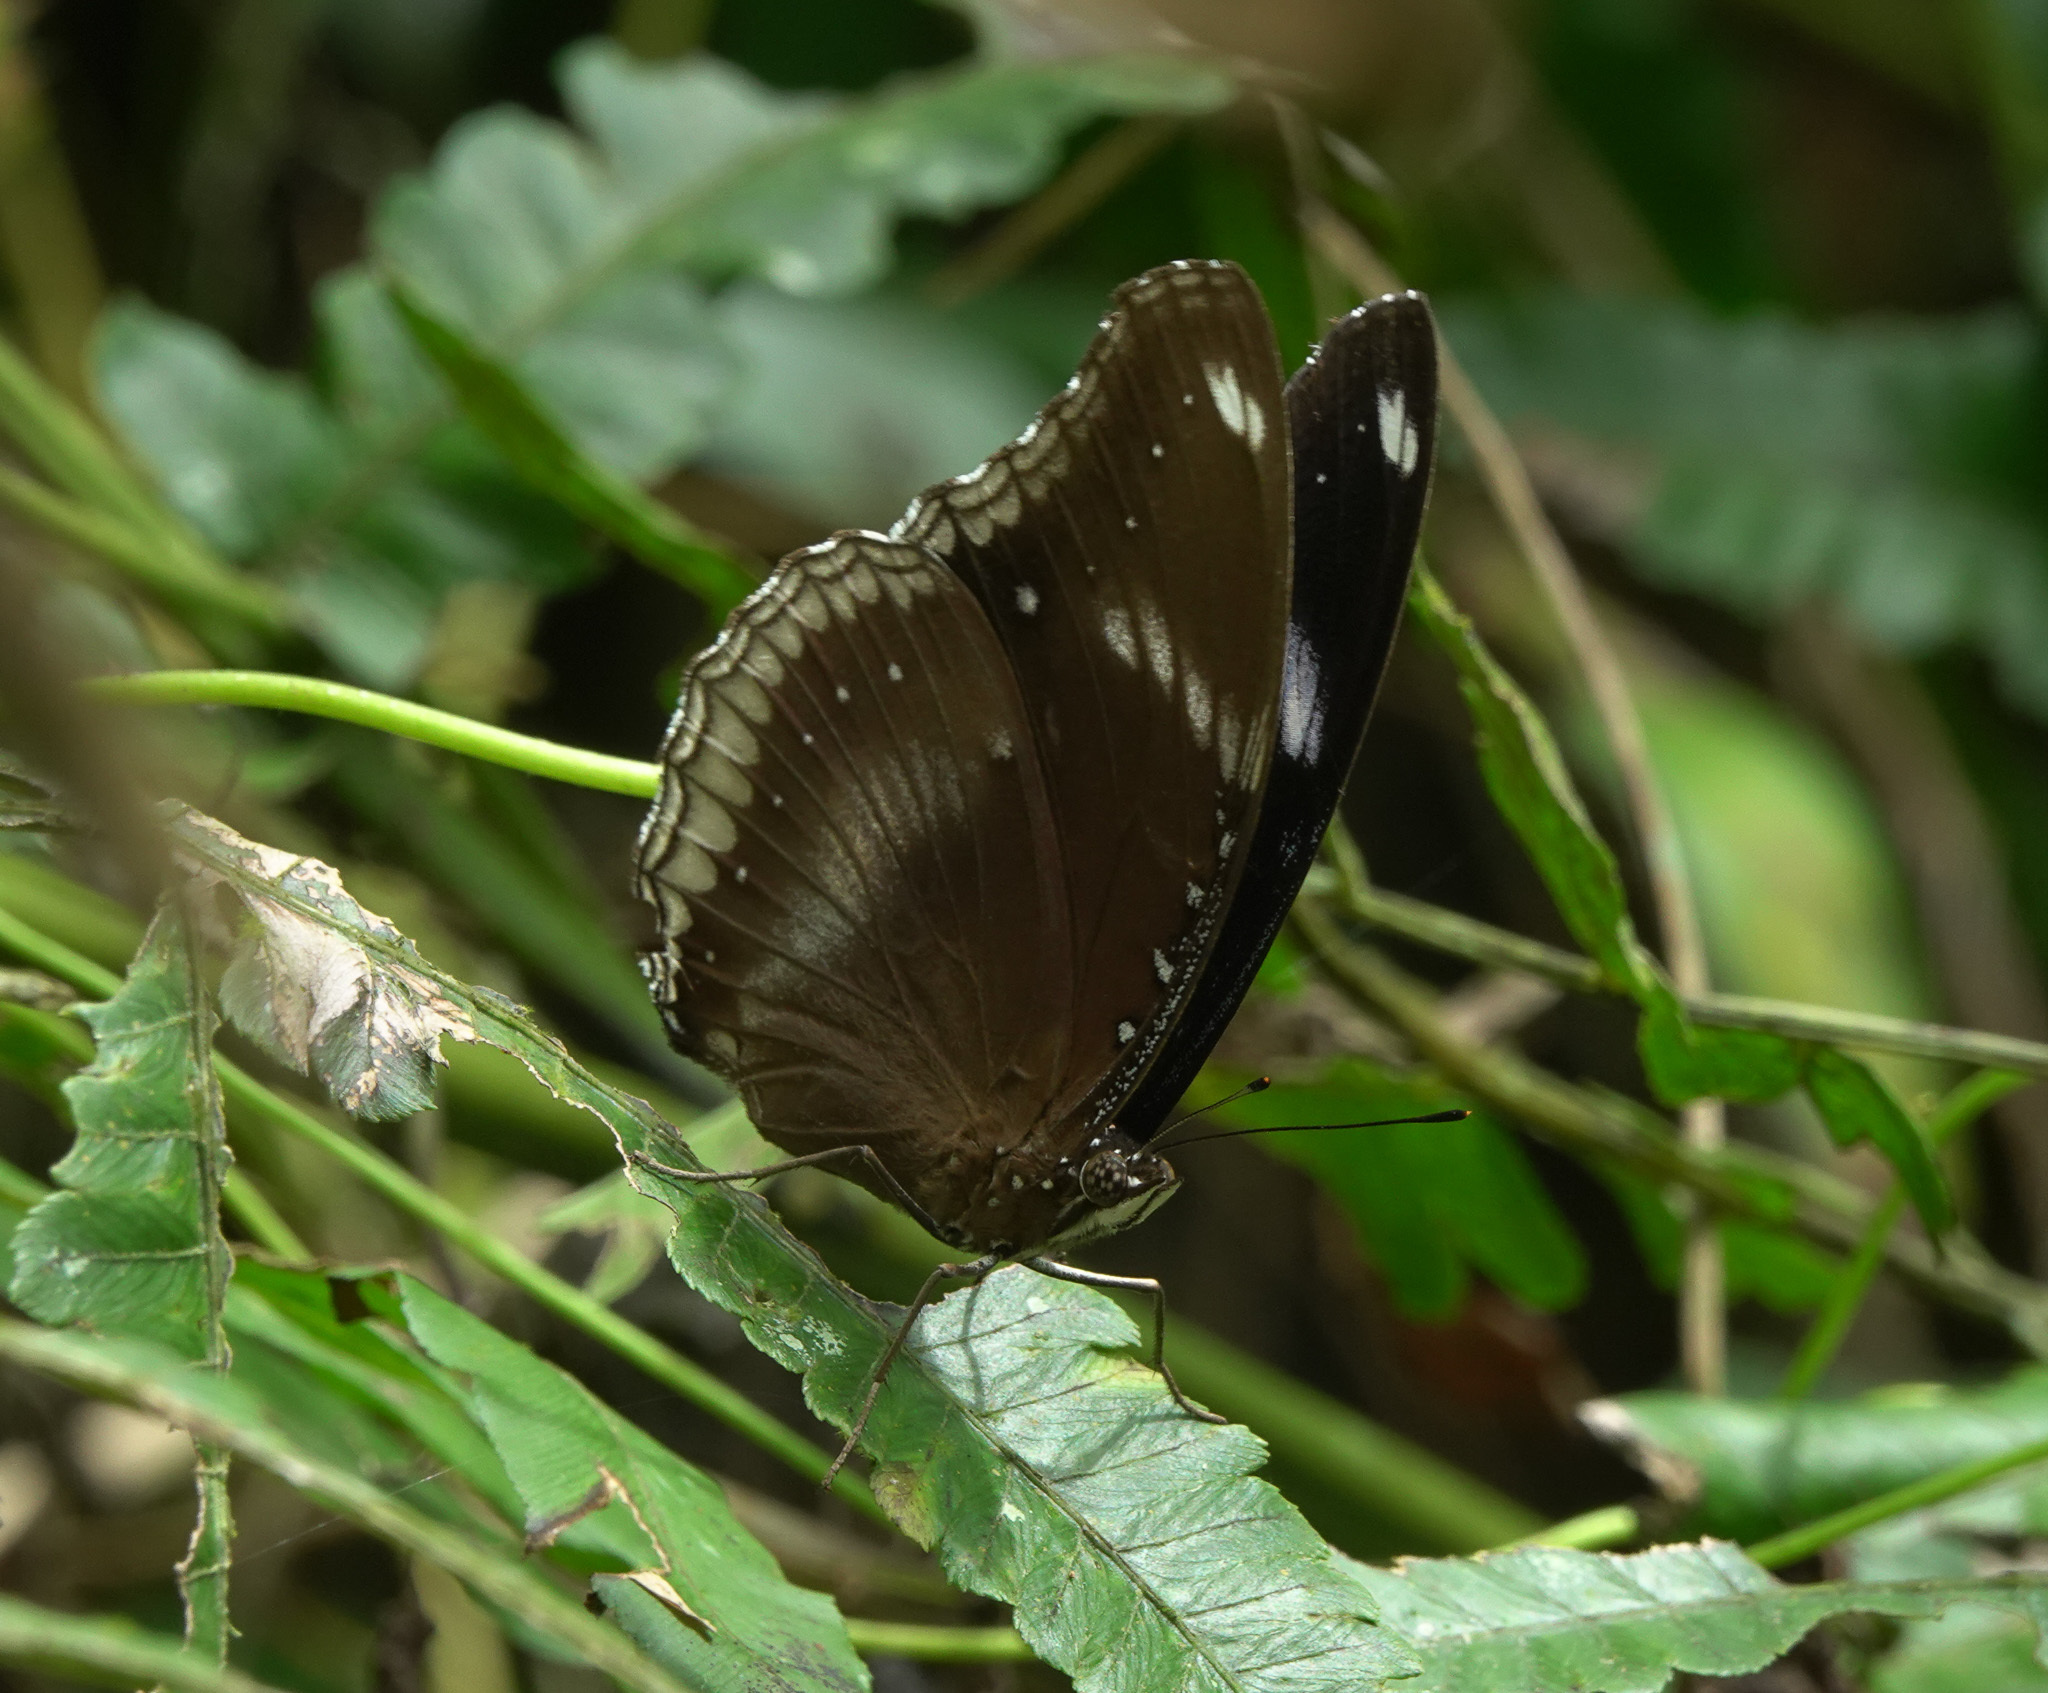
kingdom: Animalia
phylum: Arthropoda
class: Insecta
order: Lepidoptera
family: Nymphalidae
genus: Hypolimnas
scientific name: Hypolimnas bolina
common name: Great eggfly
